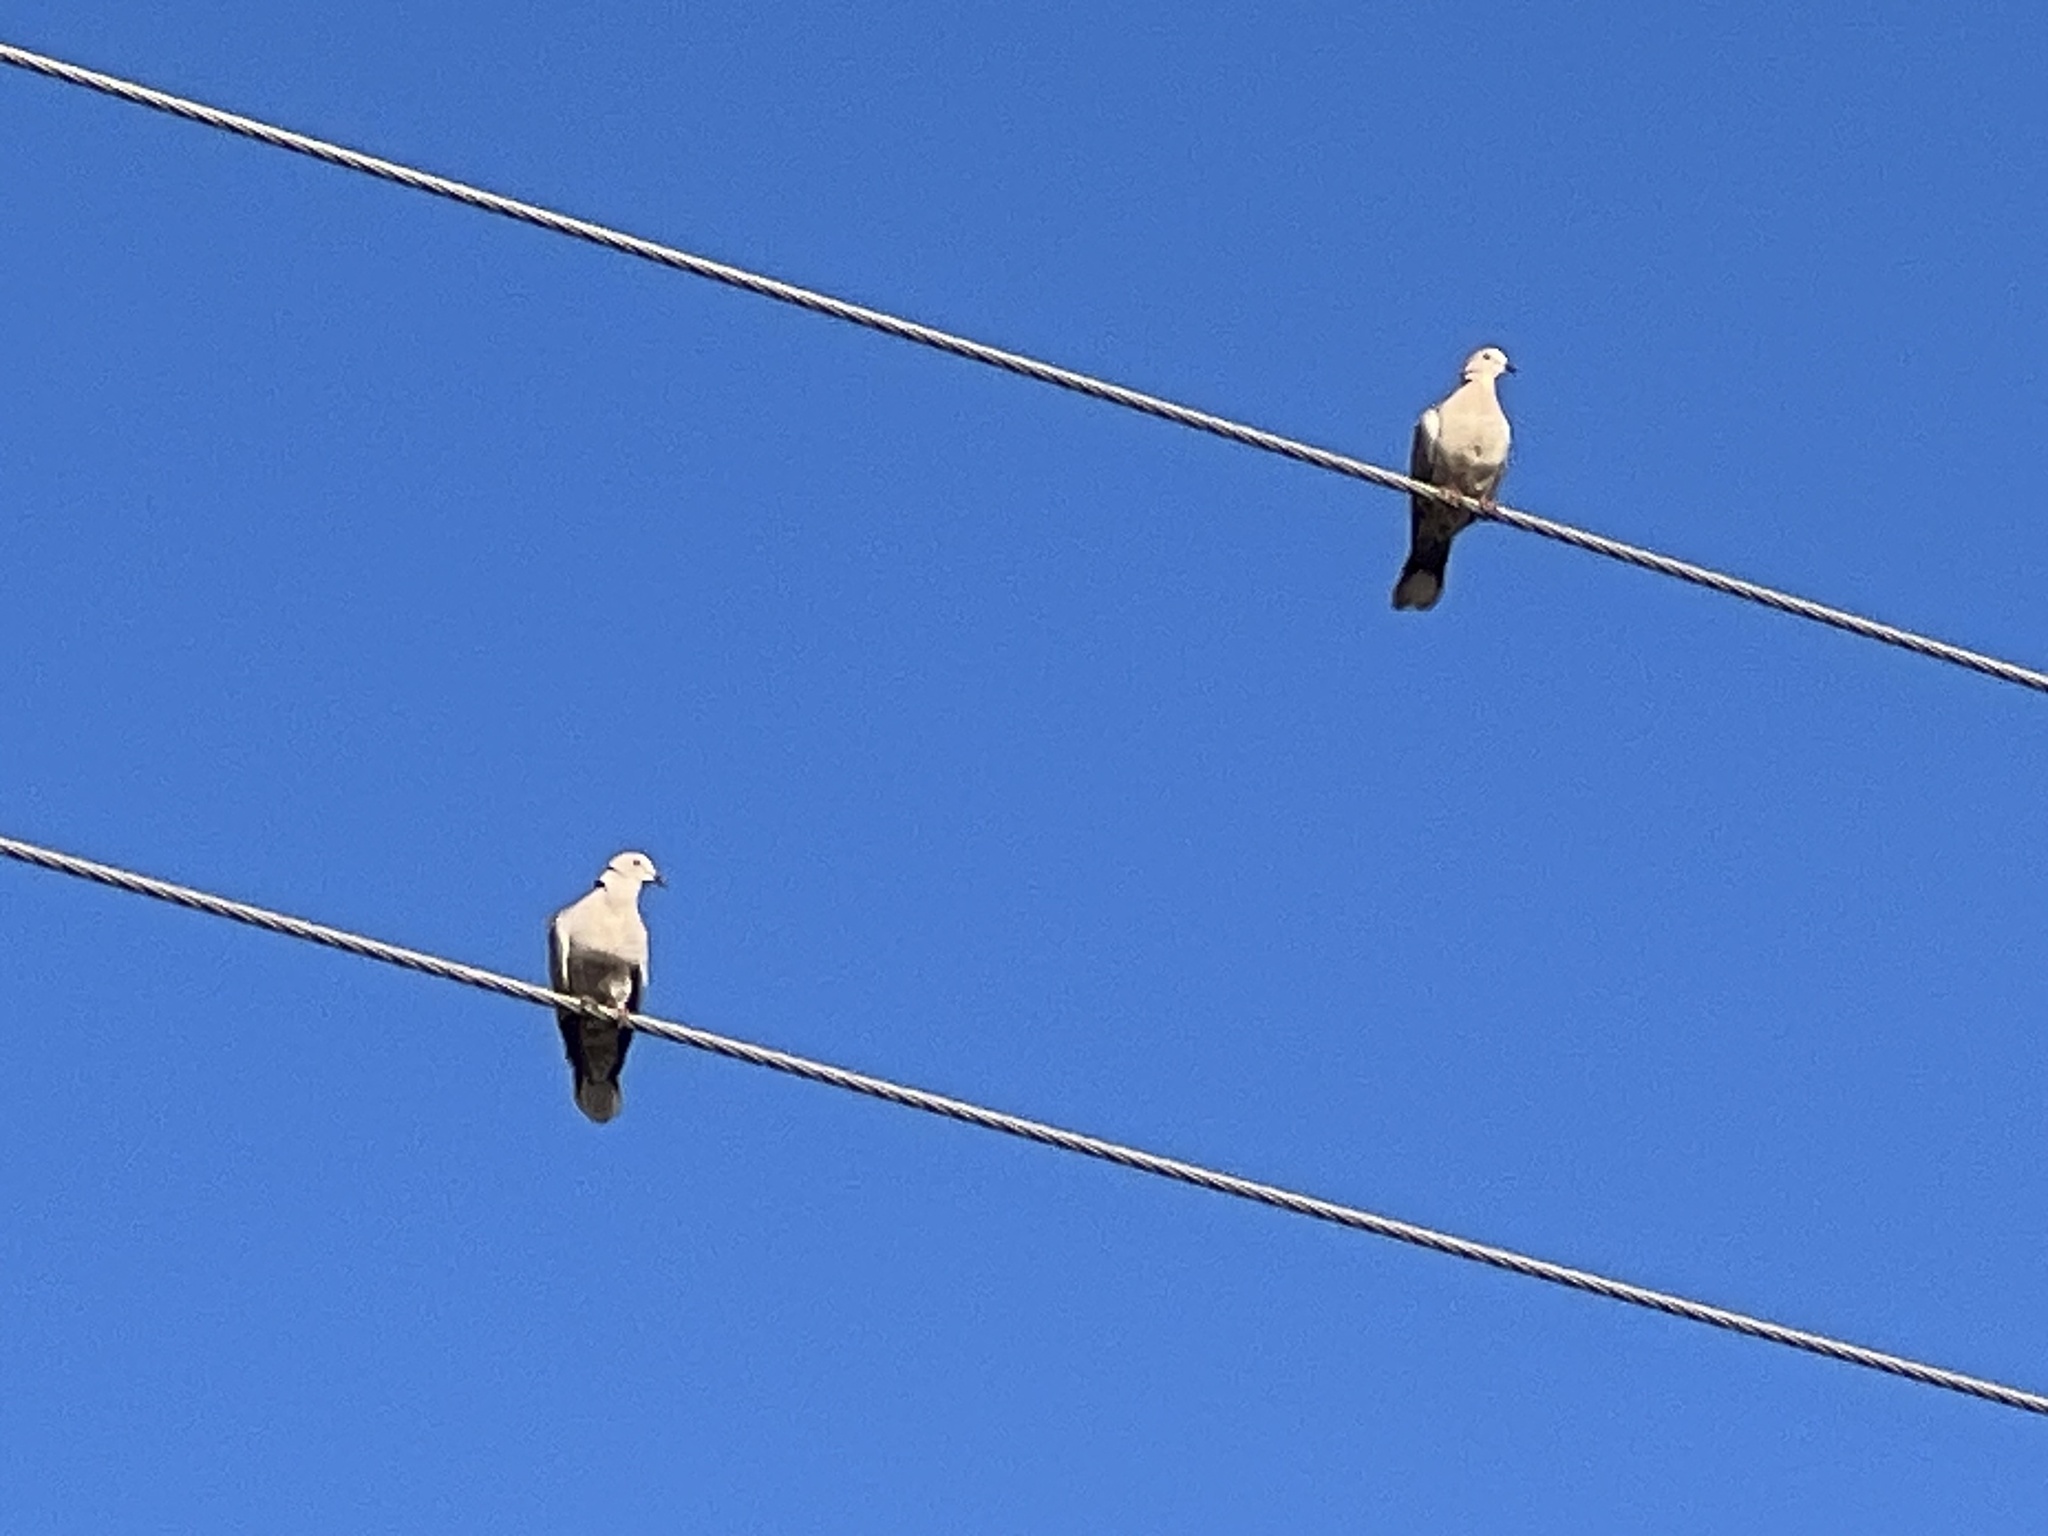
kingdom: Animalia
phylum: Chordata
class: Aves
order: Columbiformes
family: Columbidae
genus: Streptopelia
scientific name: Streptopelia decaocto
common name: Eurasian collared dove
